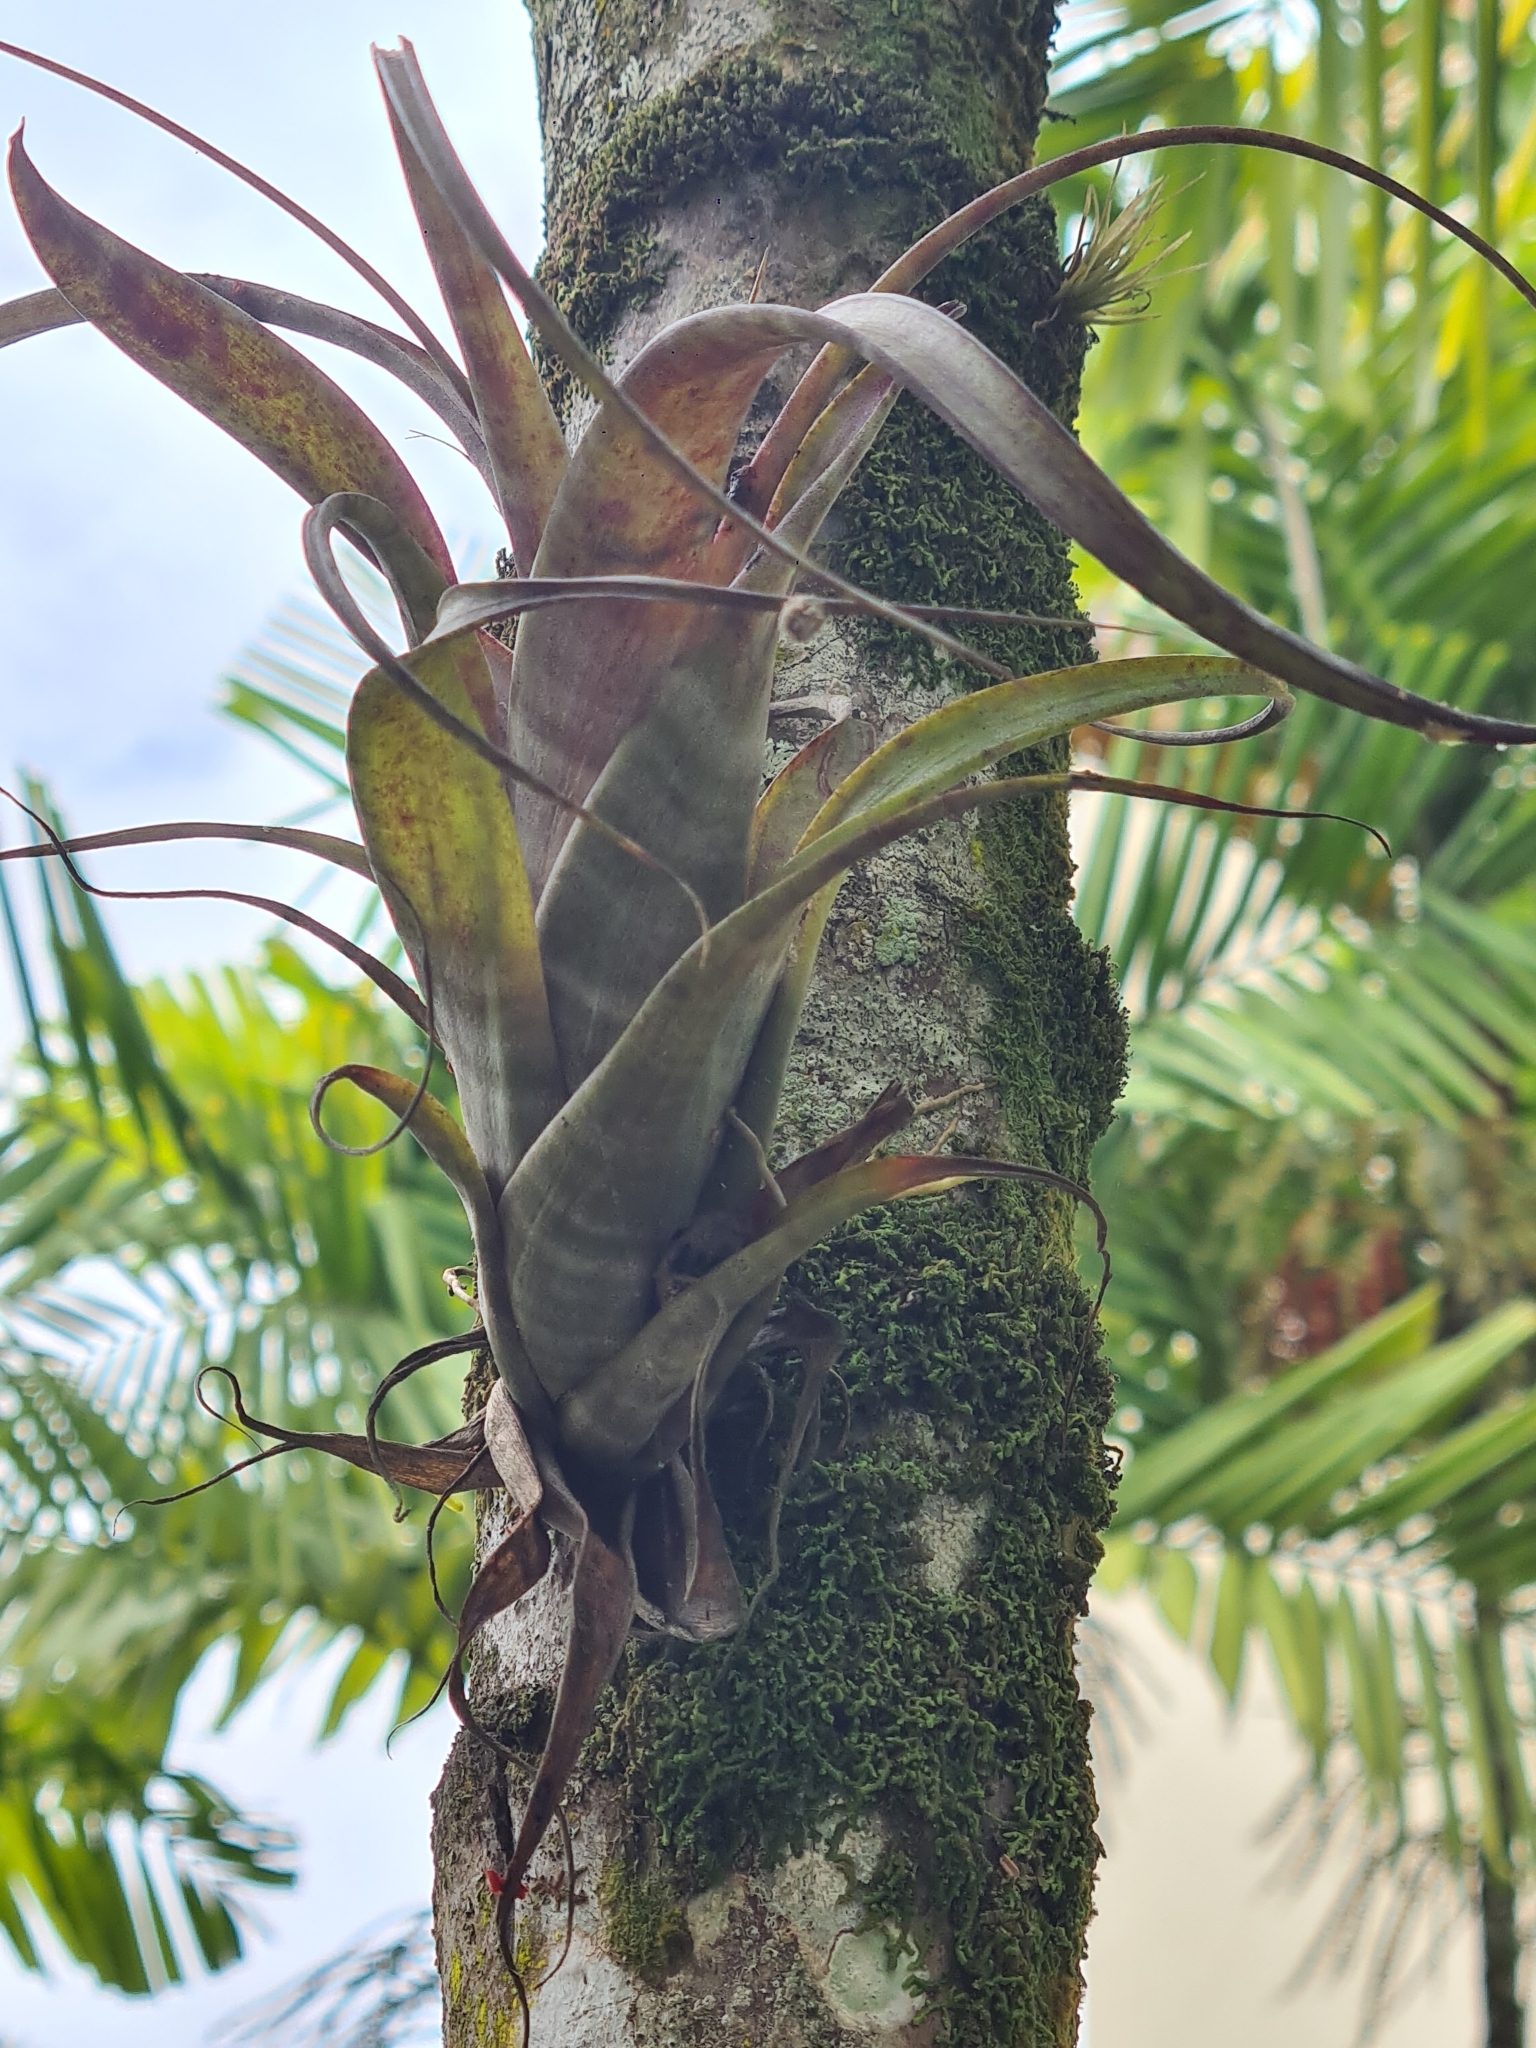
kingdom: Plantae
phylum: Tracheophyta
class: Liliopsida
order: Poales
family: Bromeliaceae
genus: Tillandsia
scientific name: Tillandsia flexuosa
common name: Banded airplant
